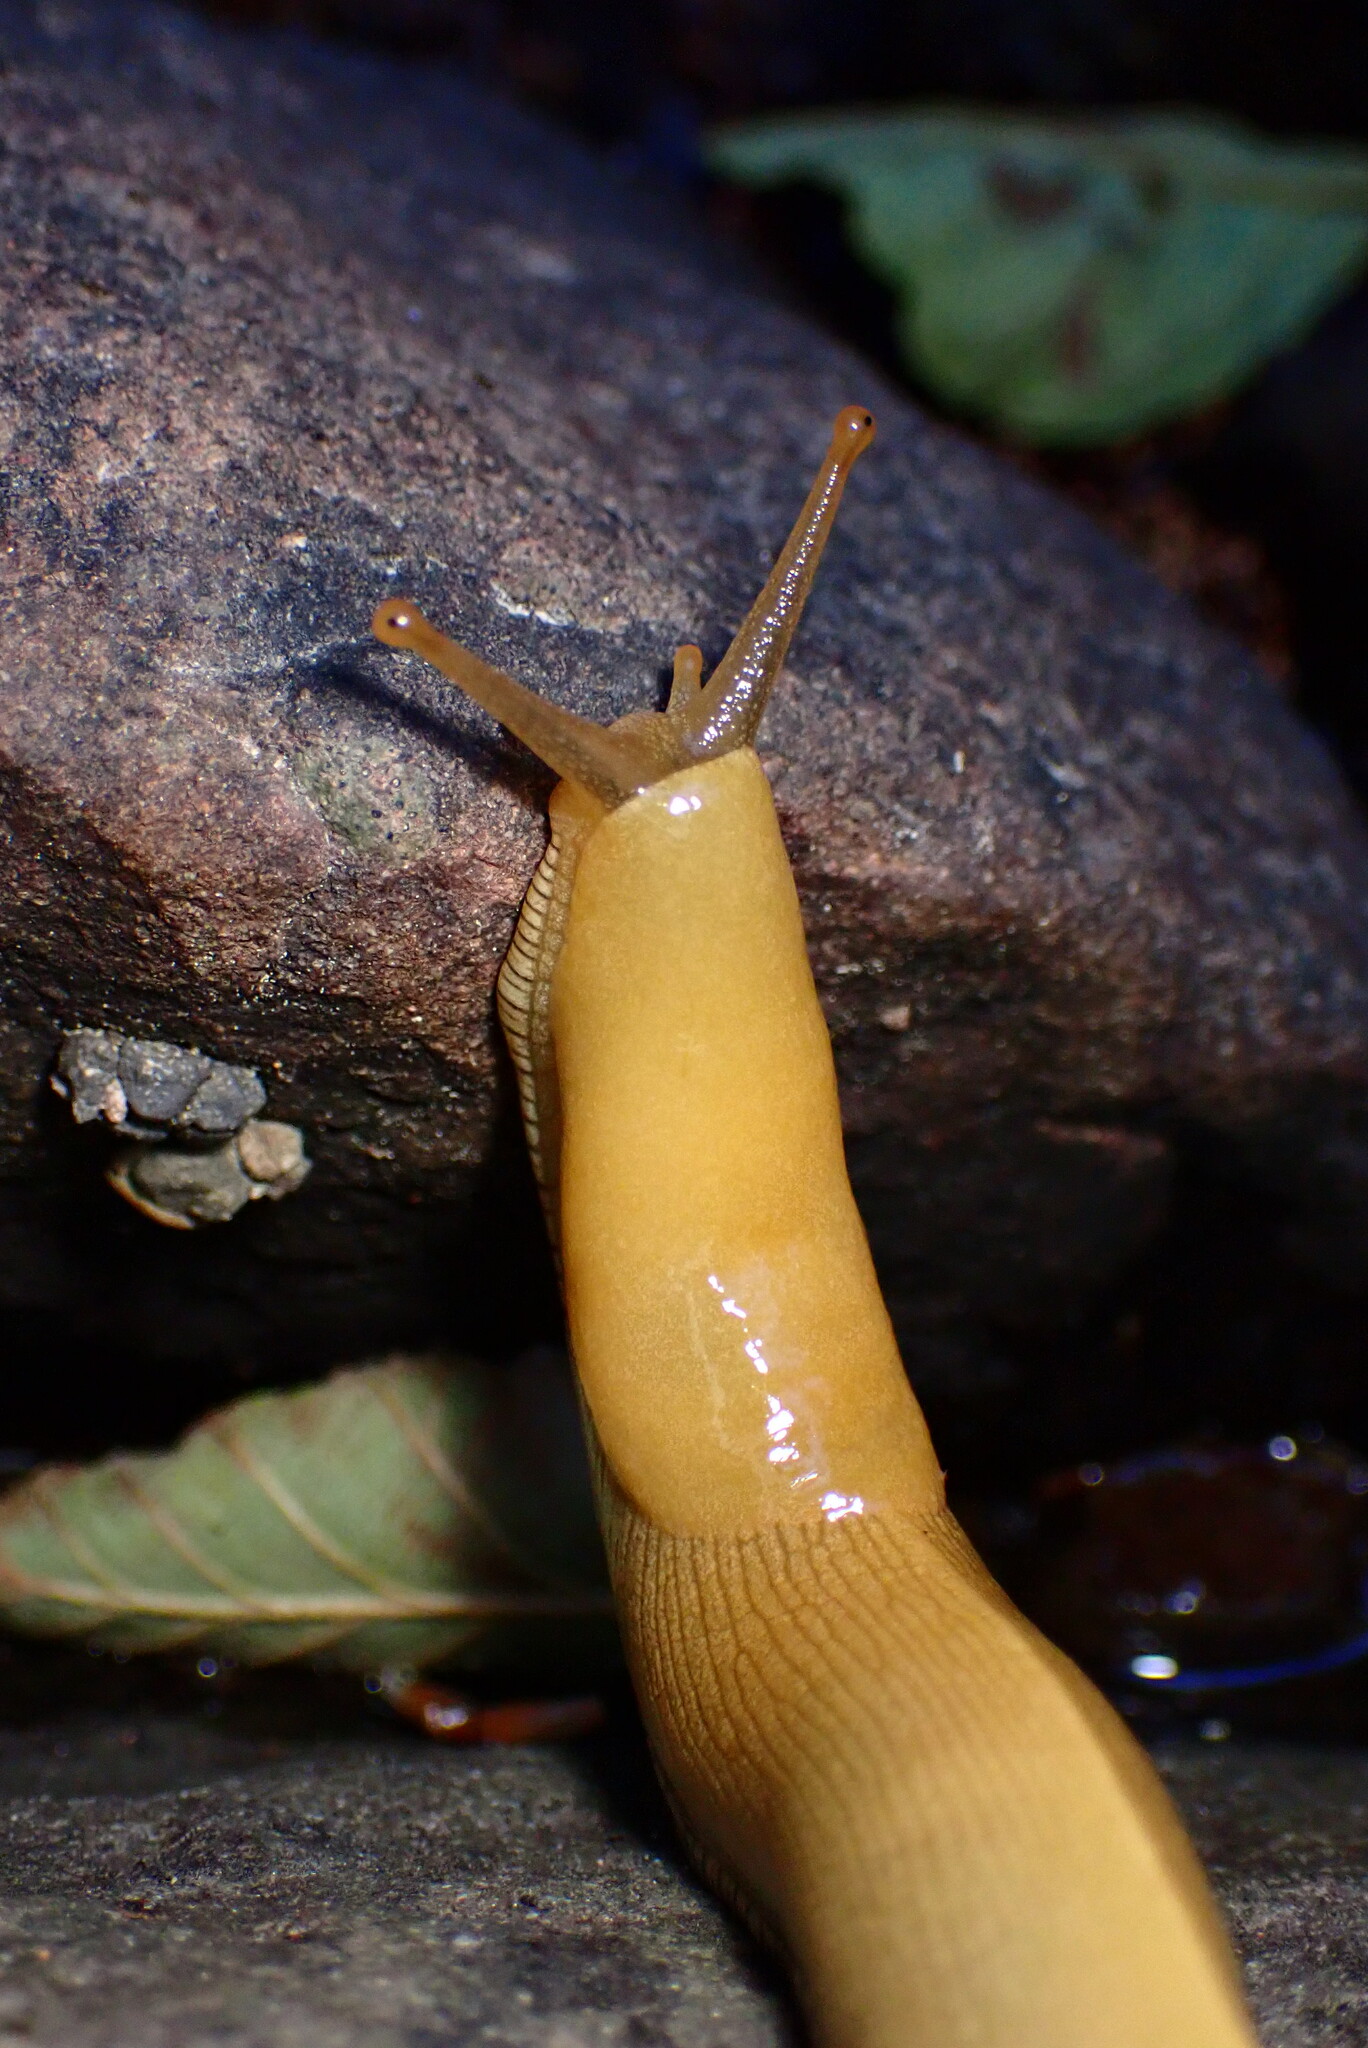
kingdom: Animalia
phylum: Mollusca
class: Gastropoda
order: Stylommatophora
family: Ariolimacidae
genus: Ariolimax
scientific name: Ariolimax buttoni
